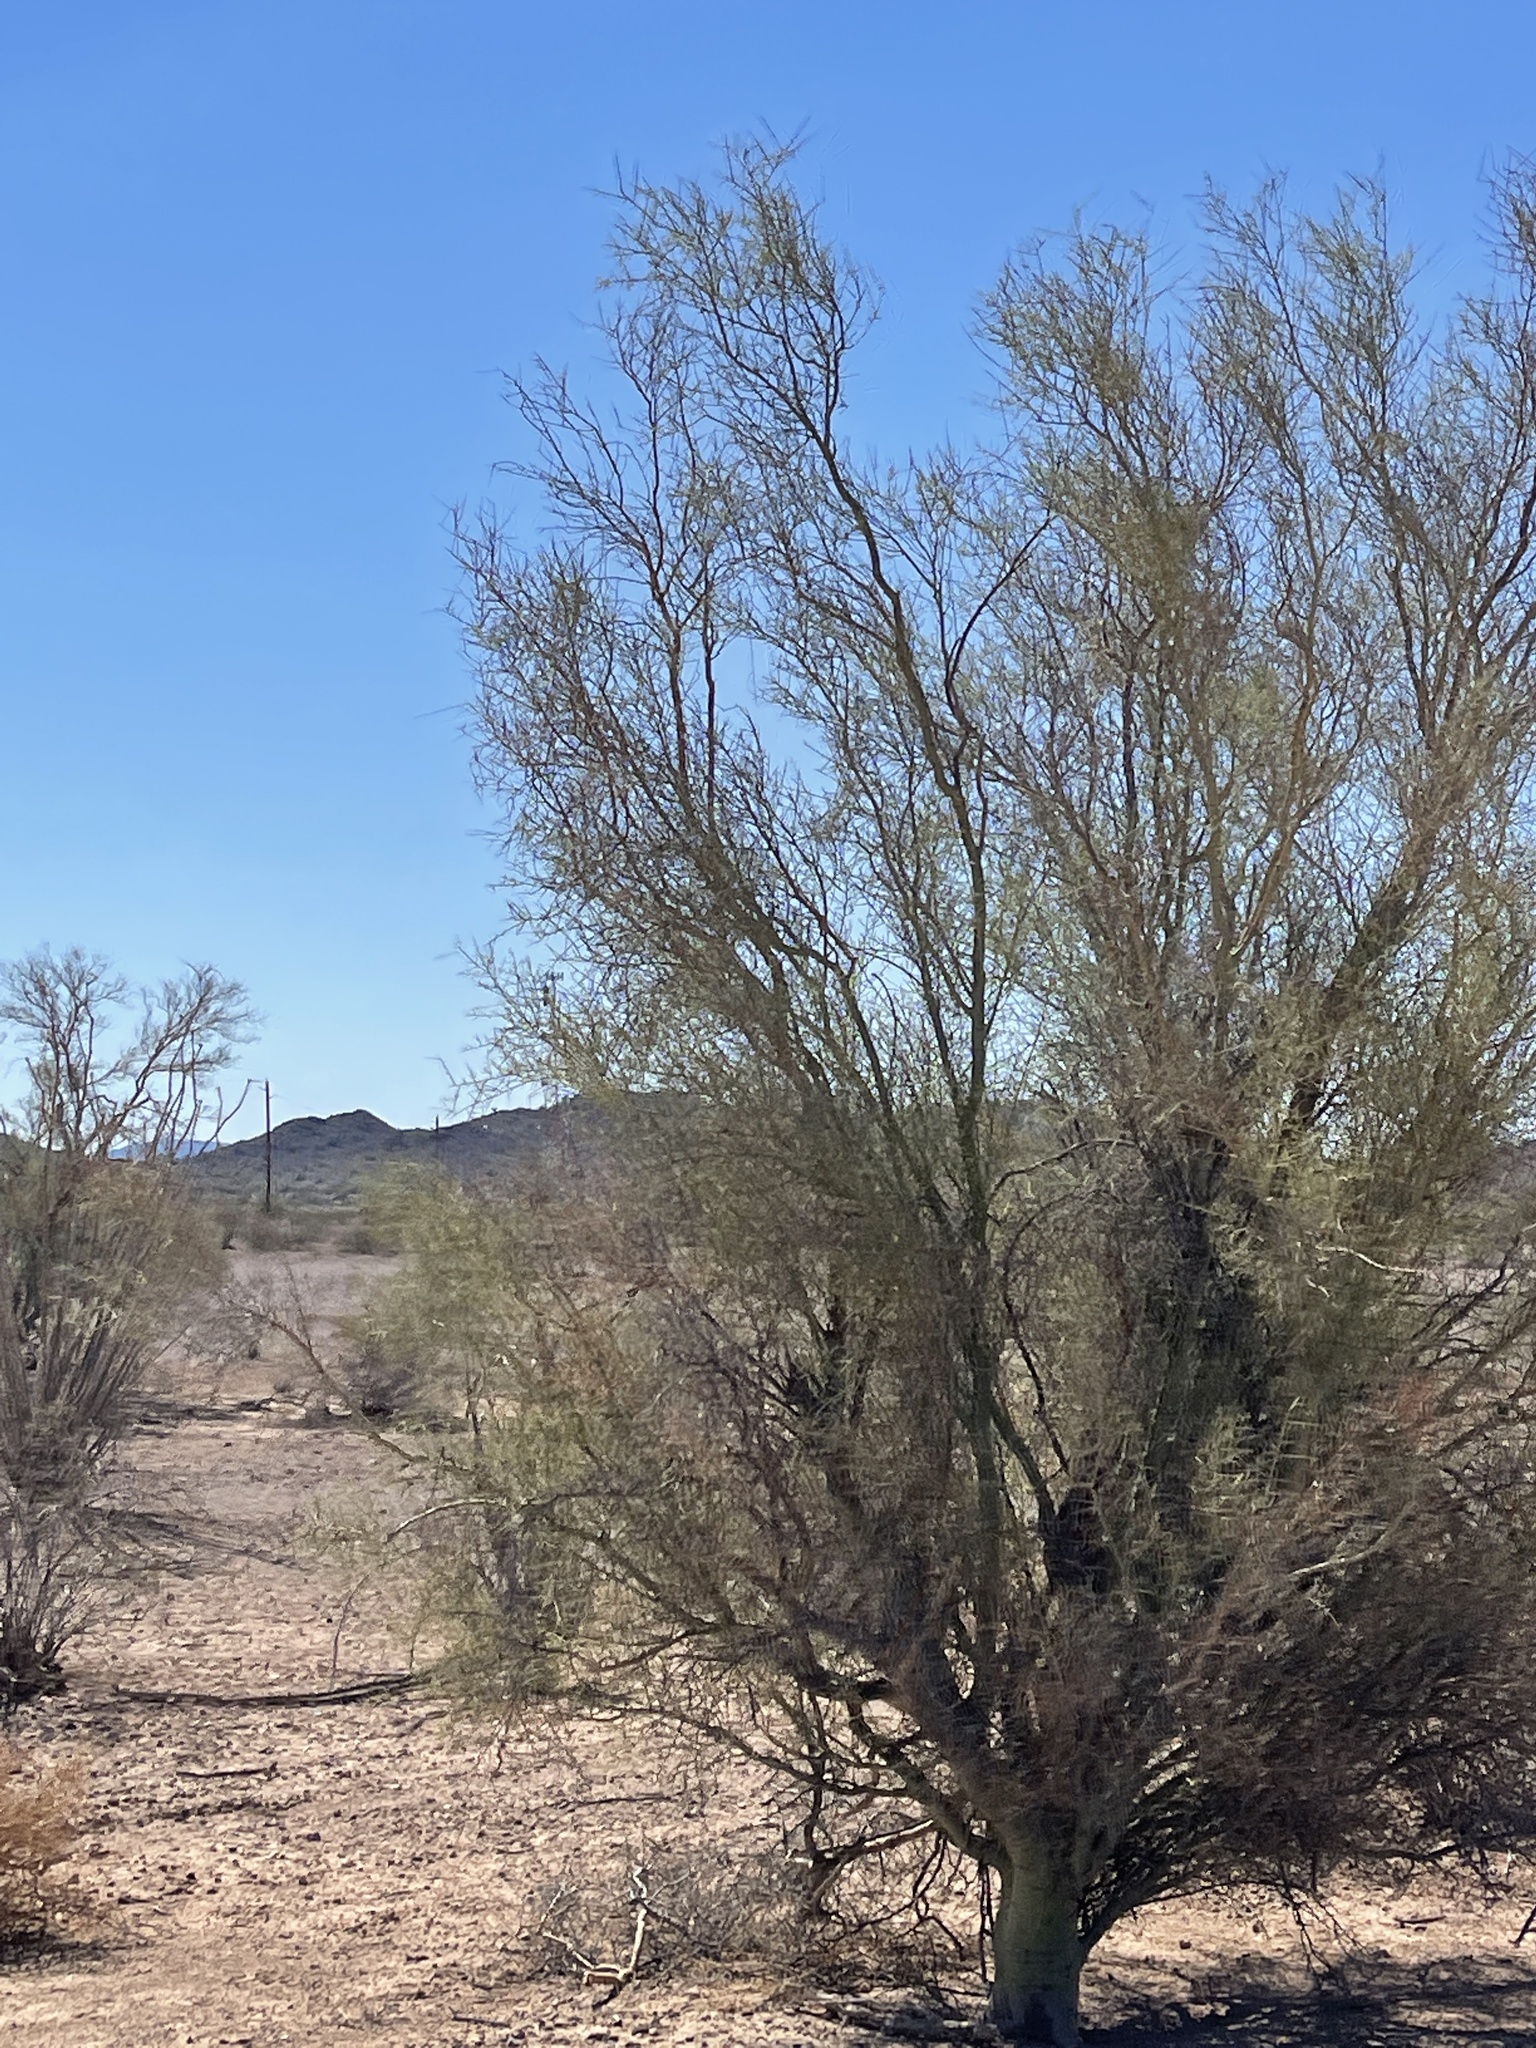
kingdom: Plantae
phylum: Tracheophyta
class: Magnoliopsida
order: Fabales
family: Fabaceae
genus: Parkinsonia
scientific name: Parkinsonia microphylla
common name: Yellow paloverde
